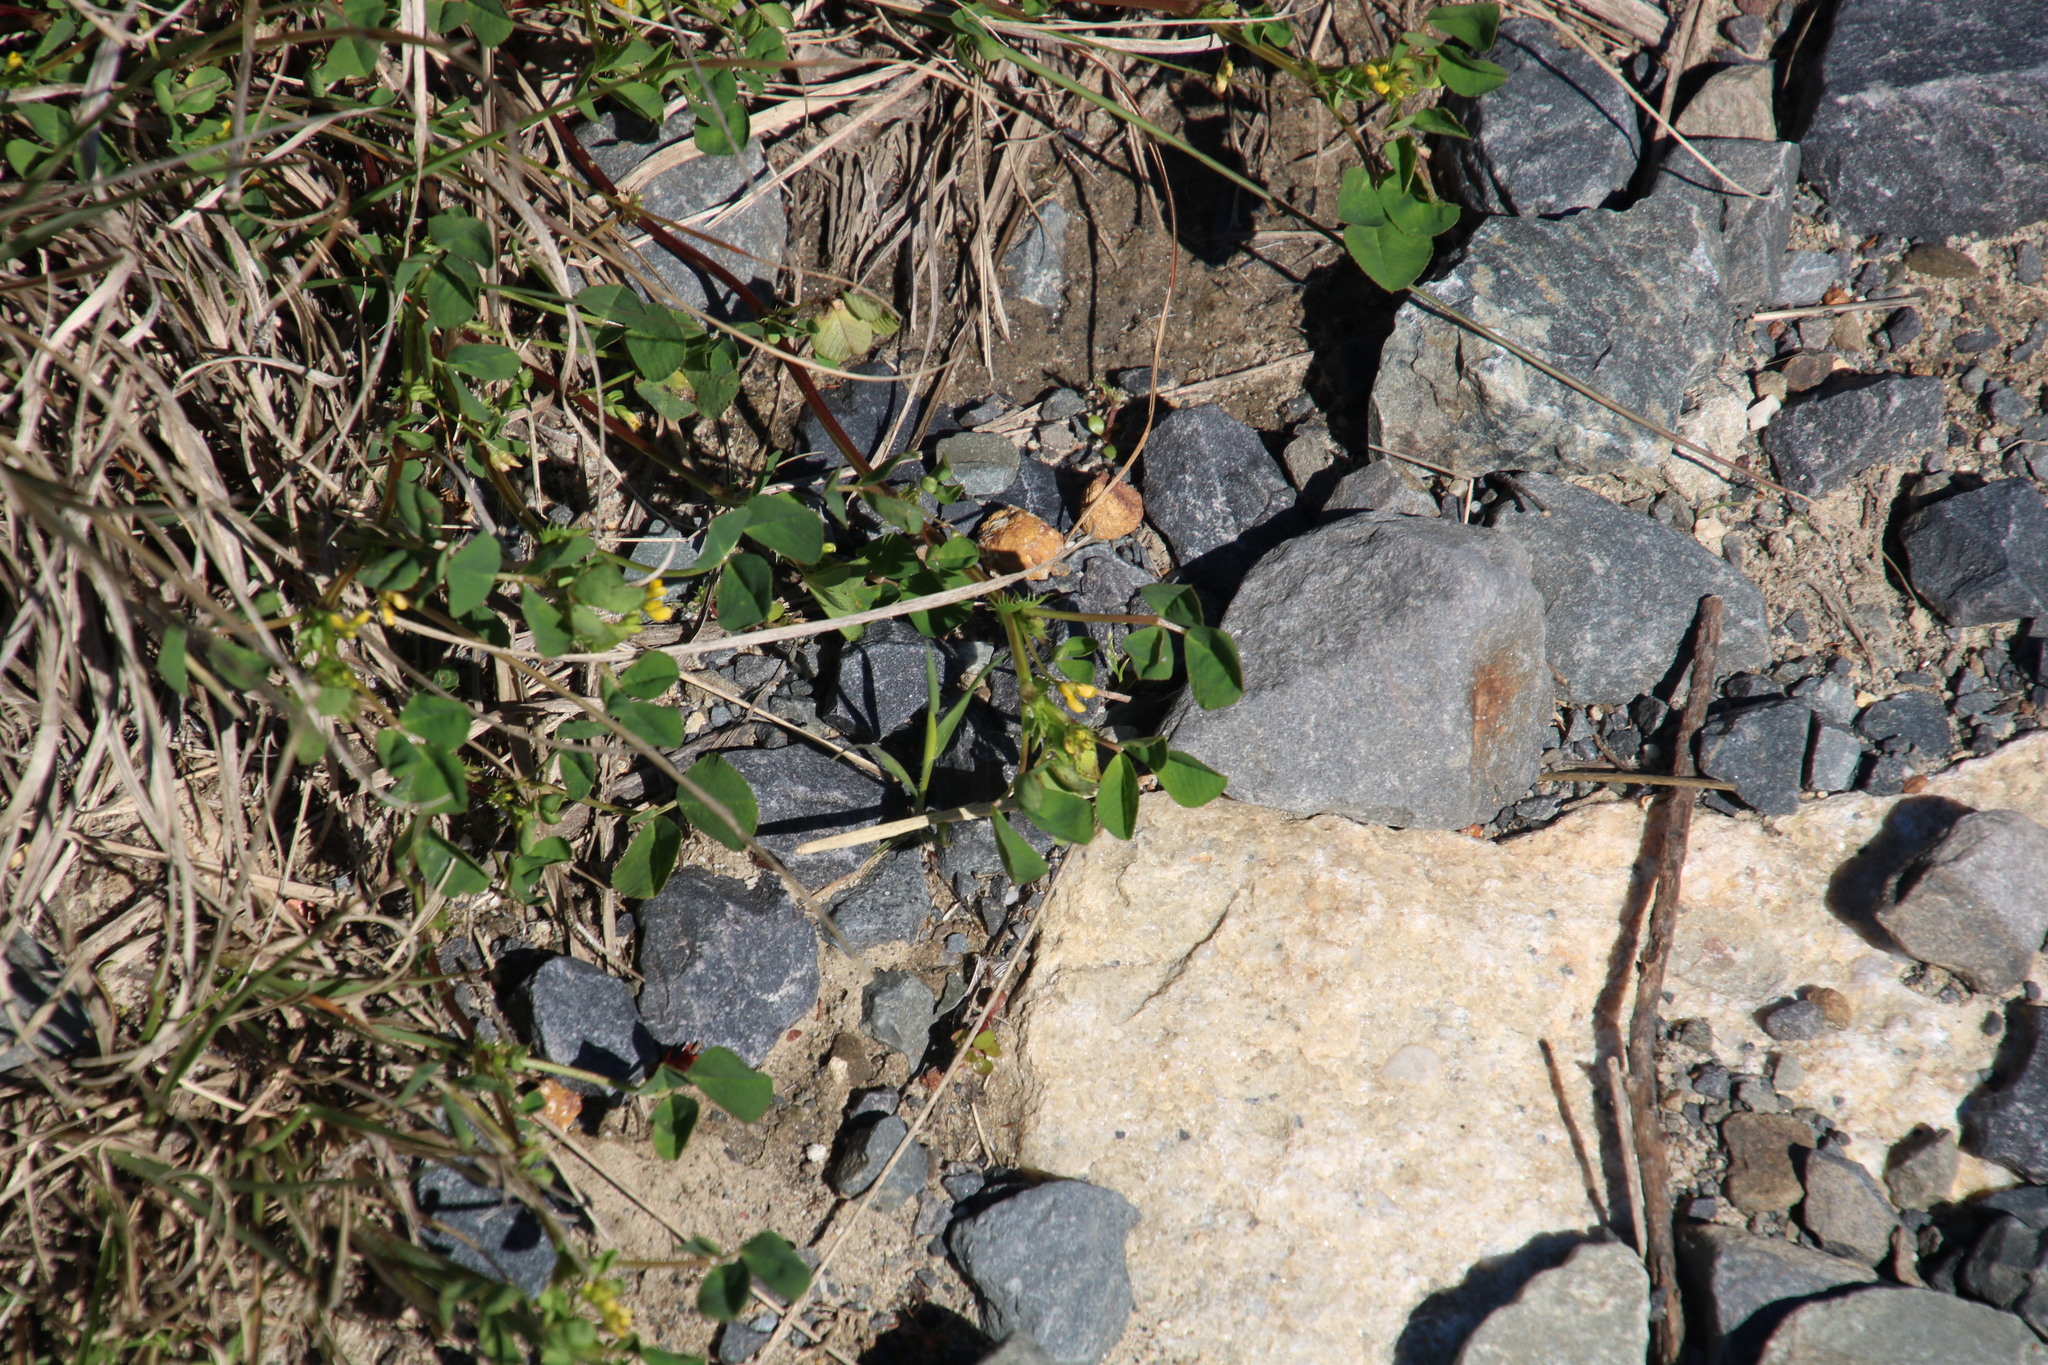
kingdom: Plantae
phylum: Tracheophyta
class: Magnoliopsida
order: Fabales
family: Fabaceae
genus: Medicago
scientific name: Medicago polymorpha
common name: Burclover
